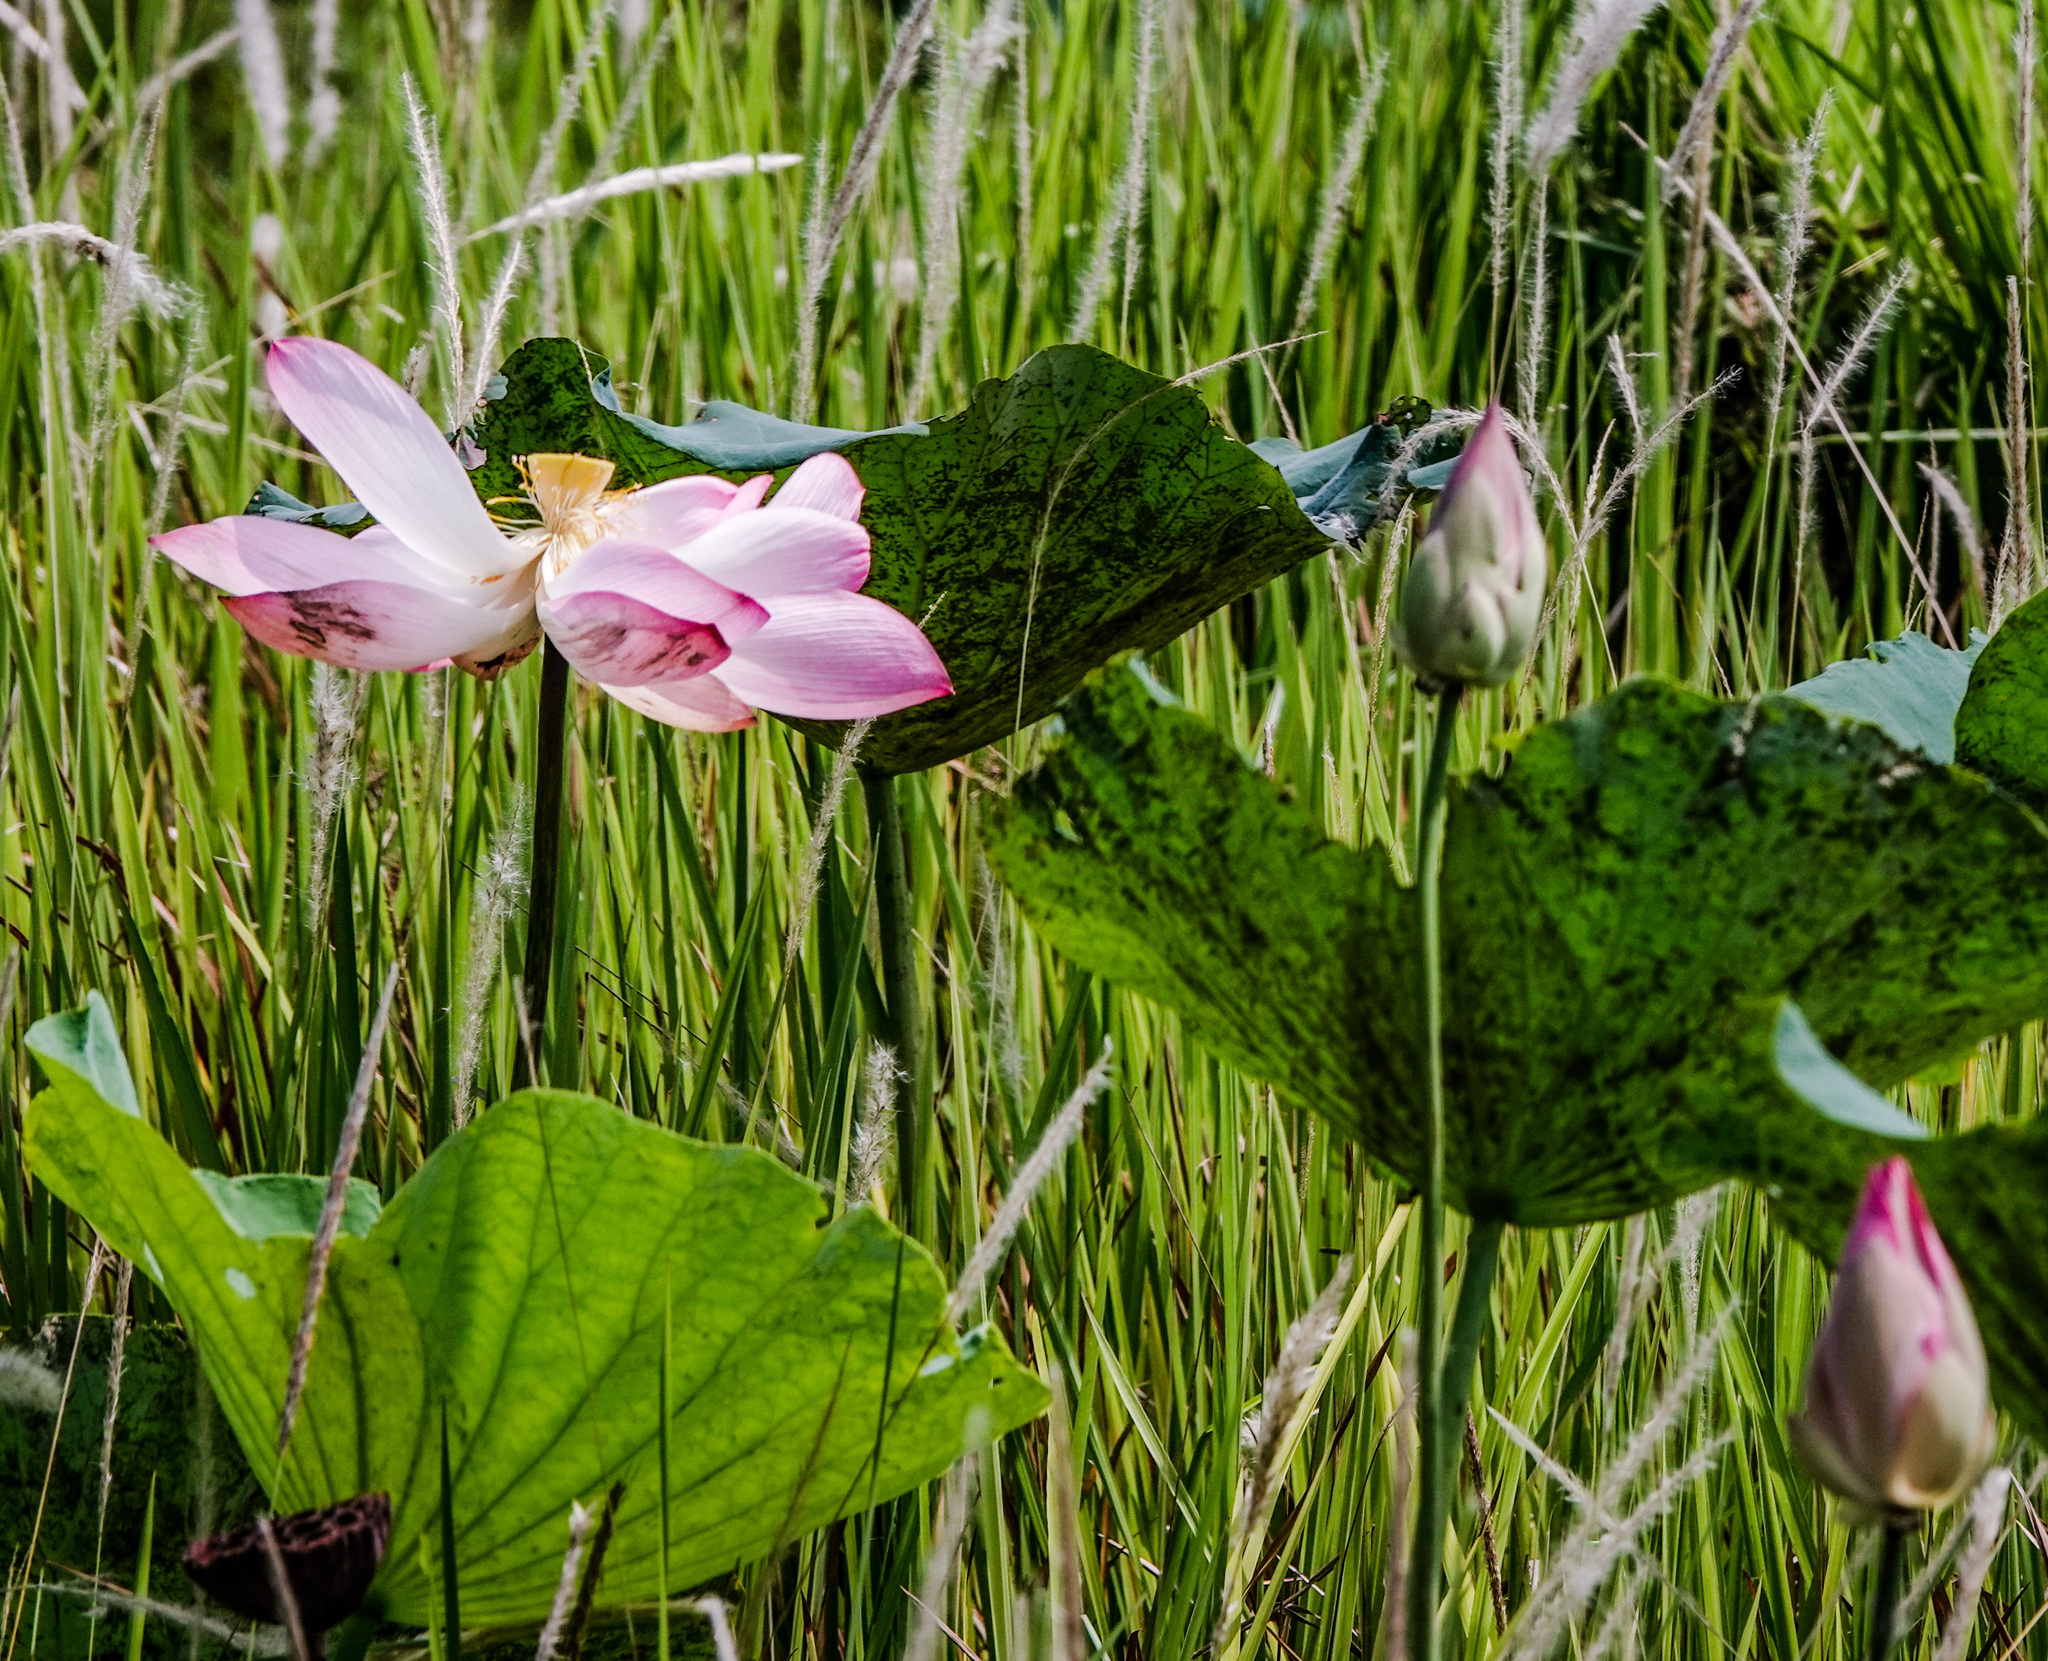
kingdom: Plantae
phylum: Tracheophyta
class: Magnoliopsida
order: Proteales
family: Nelumbonaceae
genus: Nelumbo
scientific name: Nelumbo nucifera
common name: Sacred lotus
